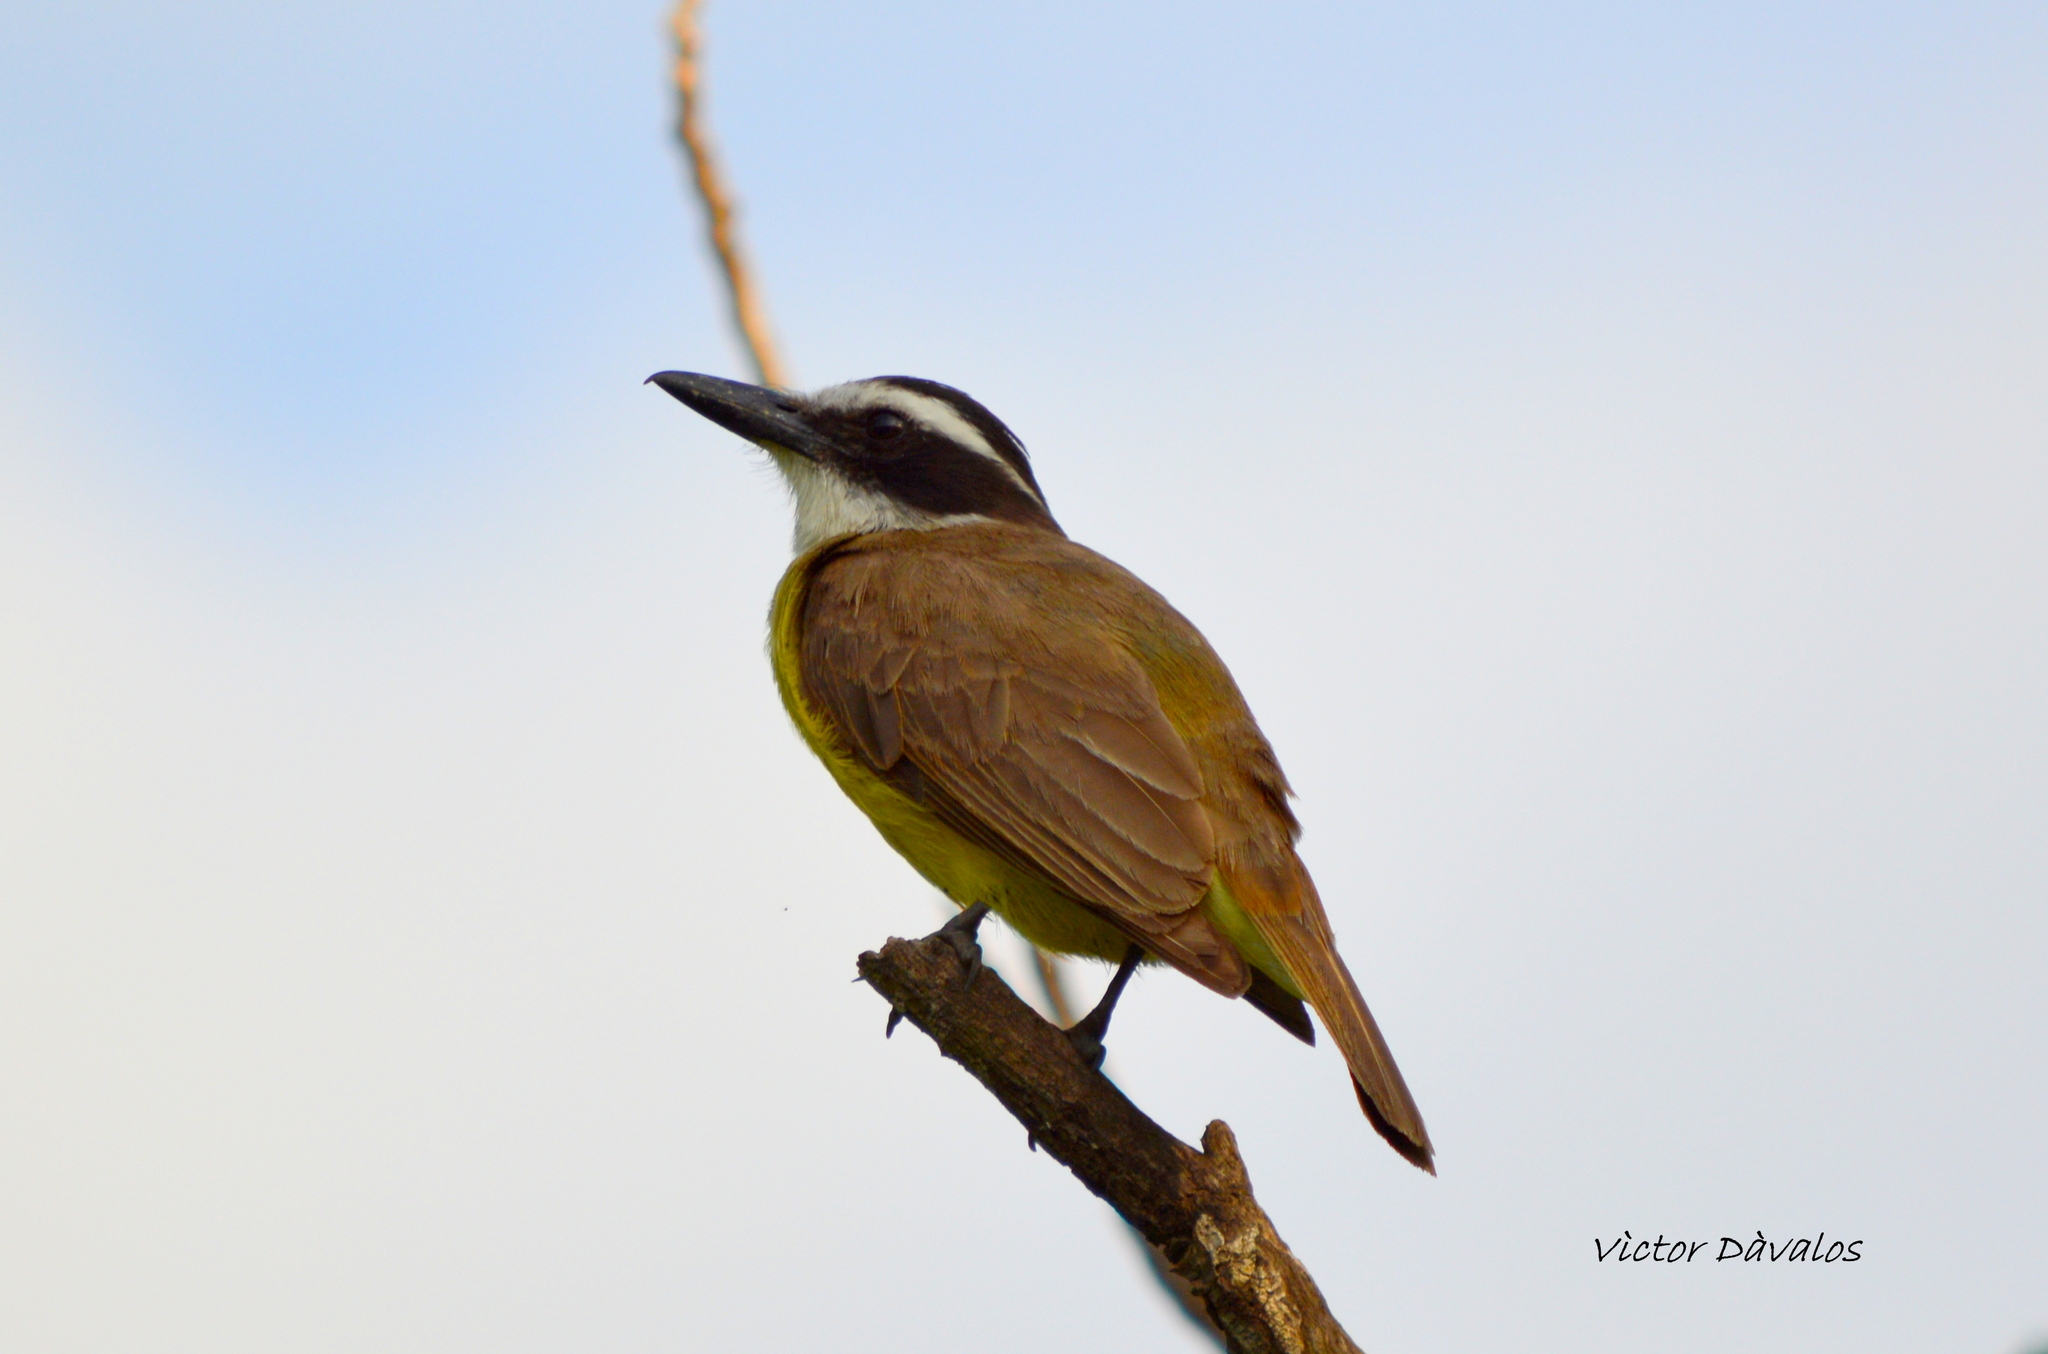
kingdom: Animalia
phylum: Chordata
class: Aves
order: Passeriformes
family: Tyrannidae
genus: Pitangus
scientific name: Pitangus sulphuratus
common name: Great kiskadee
